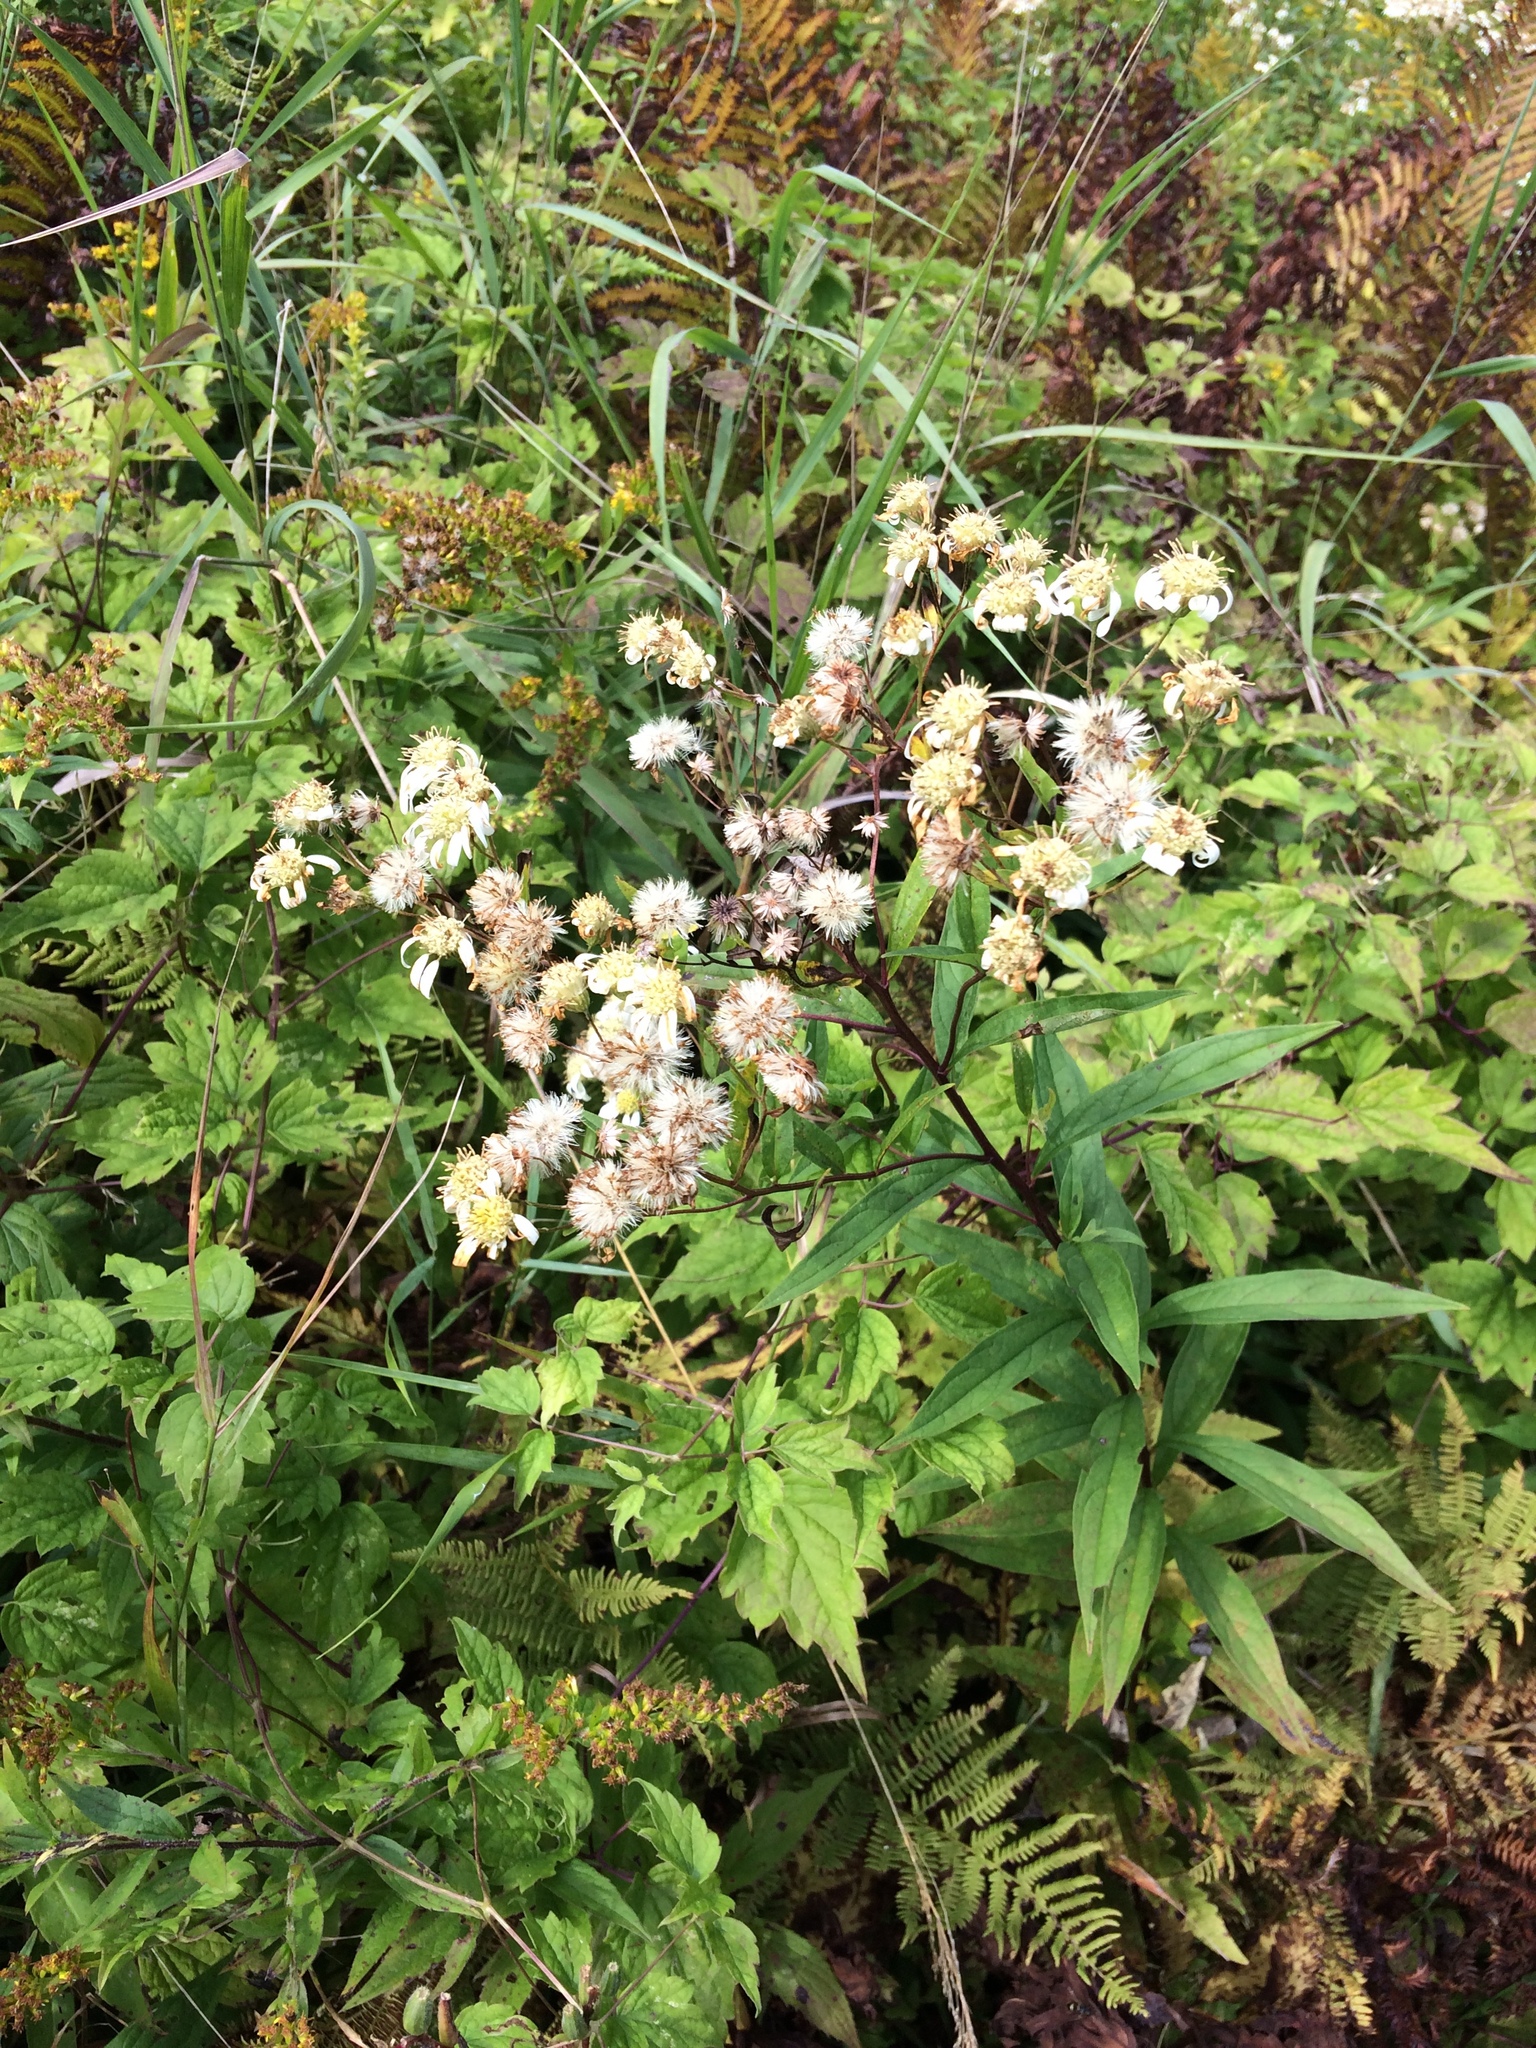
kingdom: Plantae
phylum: Tracheophyta
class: Magnoliopsida
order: Asterales
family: Asteraceae
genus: Doellingeria
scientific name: Doellingeria umbellata
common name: Flat-top white aster
